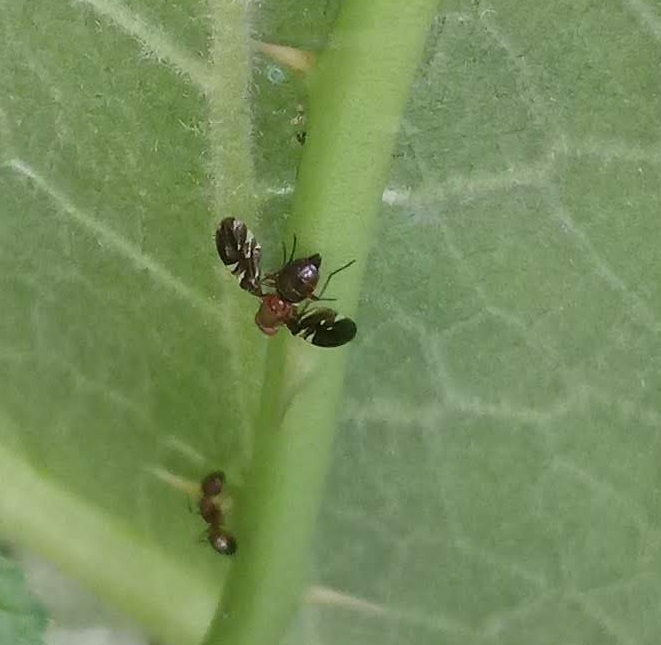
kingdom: Animalia
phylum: Arthropoda
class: Insecta
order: Diptera
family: Ulidiidae
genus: Delphinia
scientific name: Delphinia picta
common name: Common picture-winged fly
